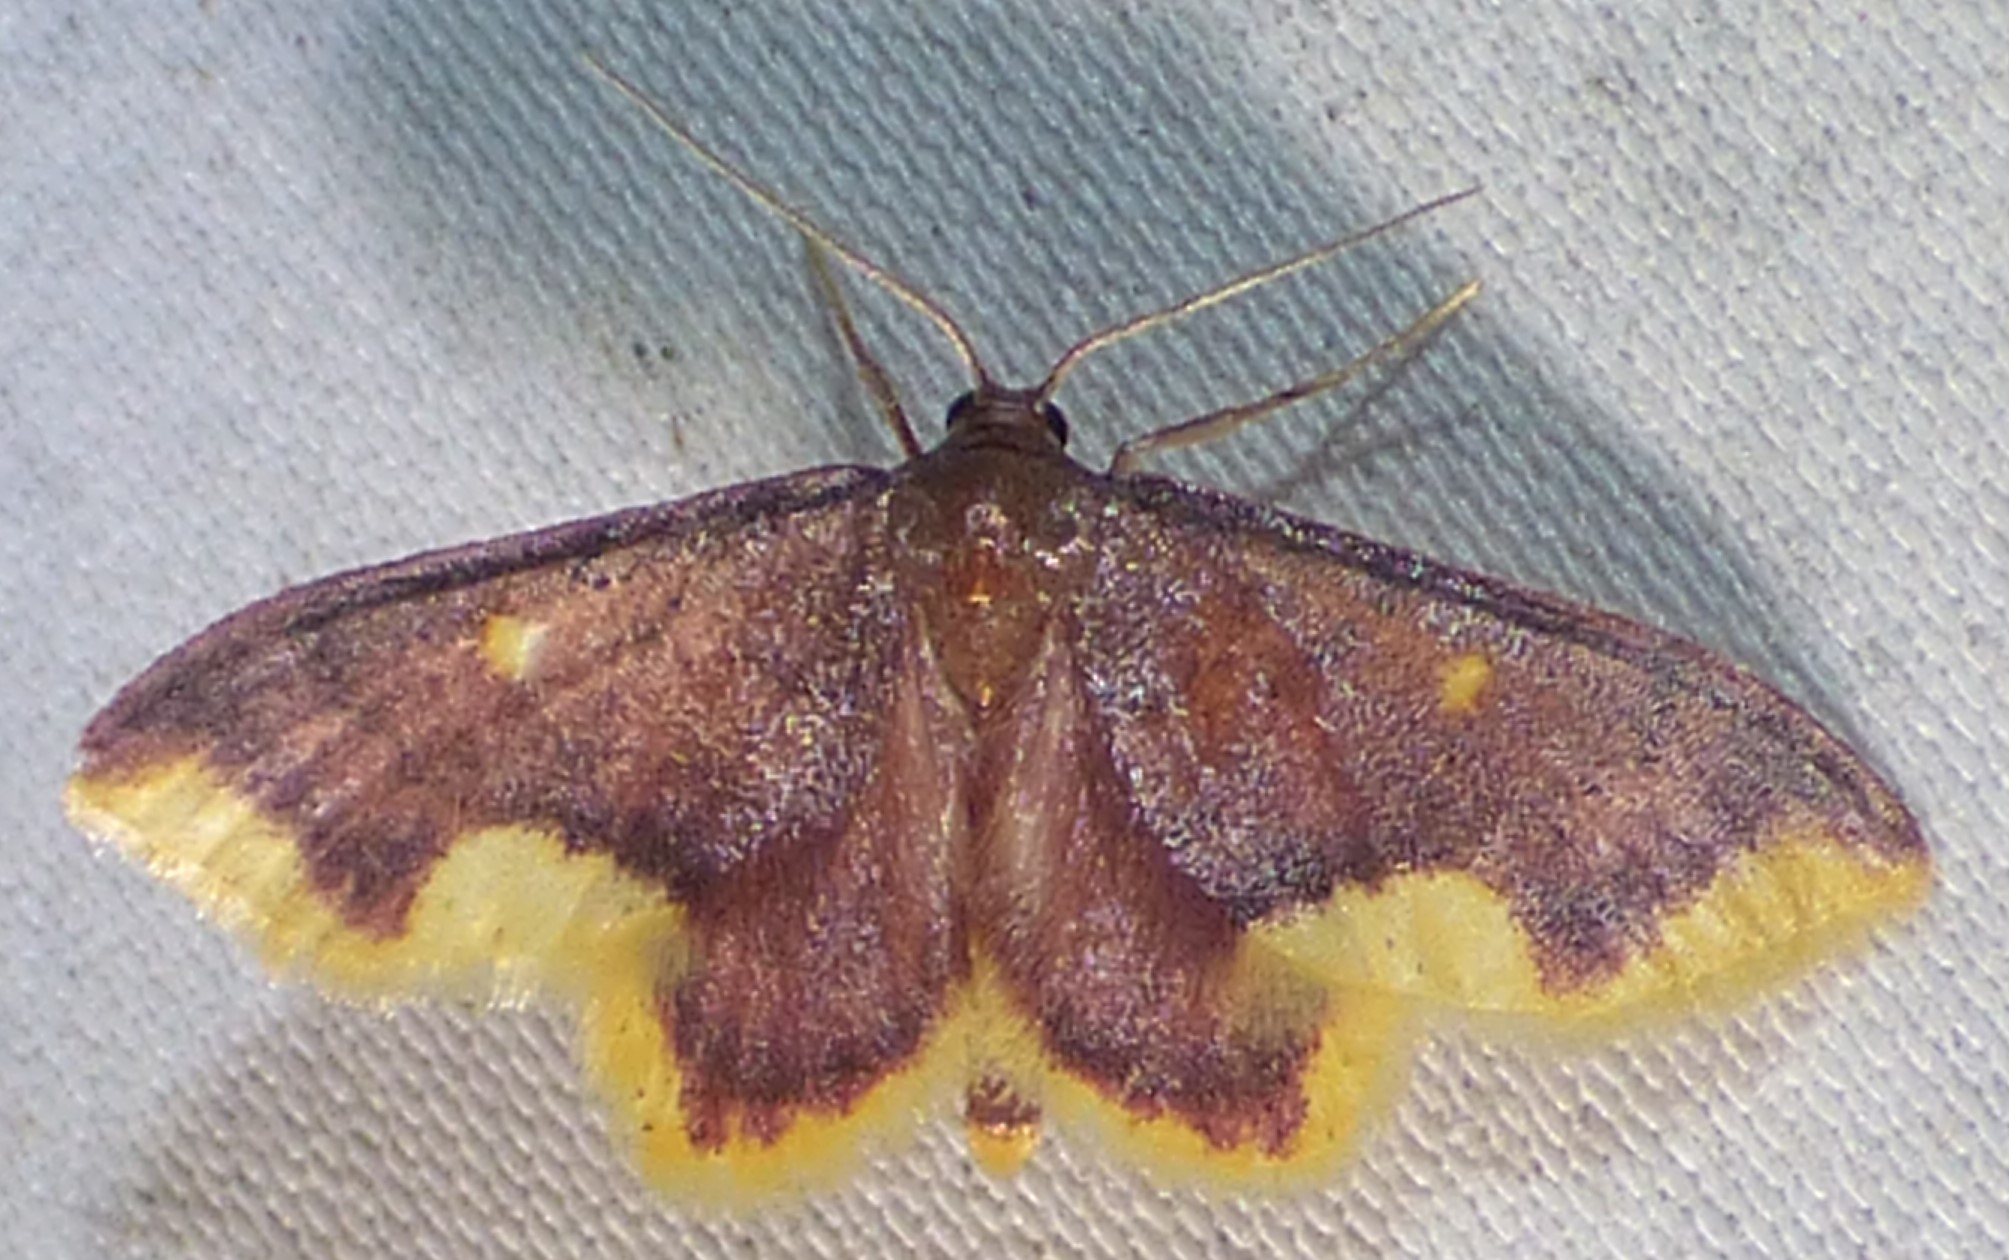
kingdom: Animalia
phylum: Arthropoda
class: Insecta
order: Lepidoptera
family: Geometridae
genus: Lophosis
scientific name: Lophosis labeculata
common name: Stained lophosis moth
